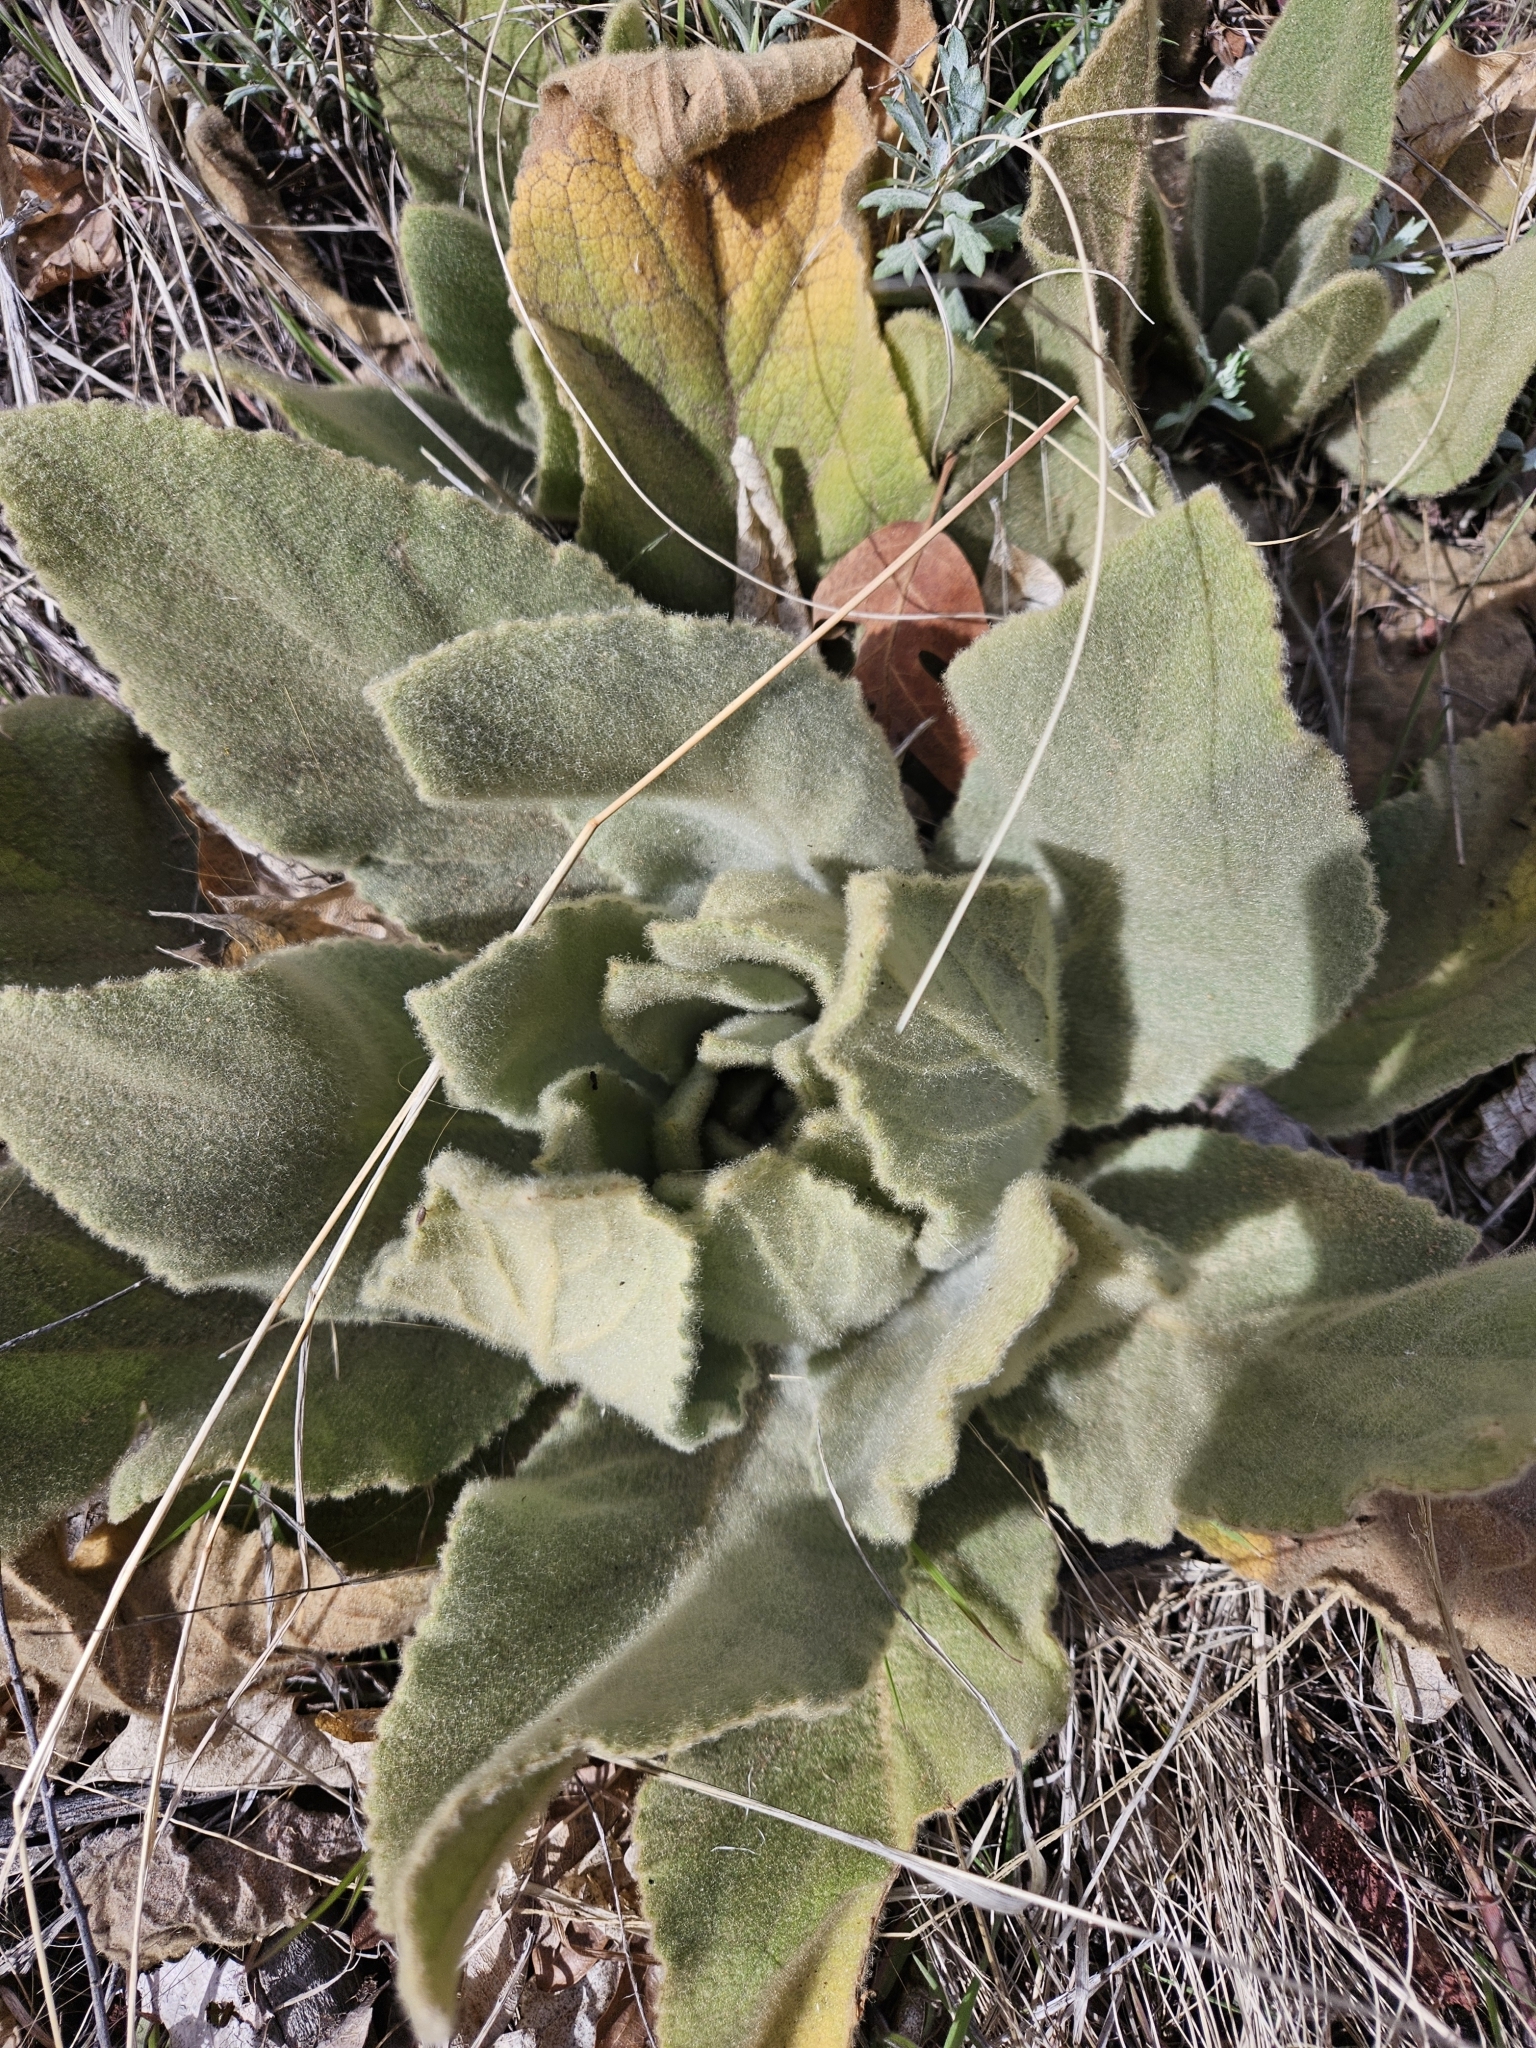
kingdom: Plantae
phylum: Tracheophyta
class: Magnoliopsida
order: Lamiales
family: Scrophulariaceae
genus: Verbascum
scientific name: Verbascum thapsus
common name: Common mullein
